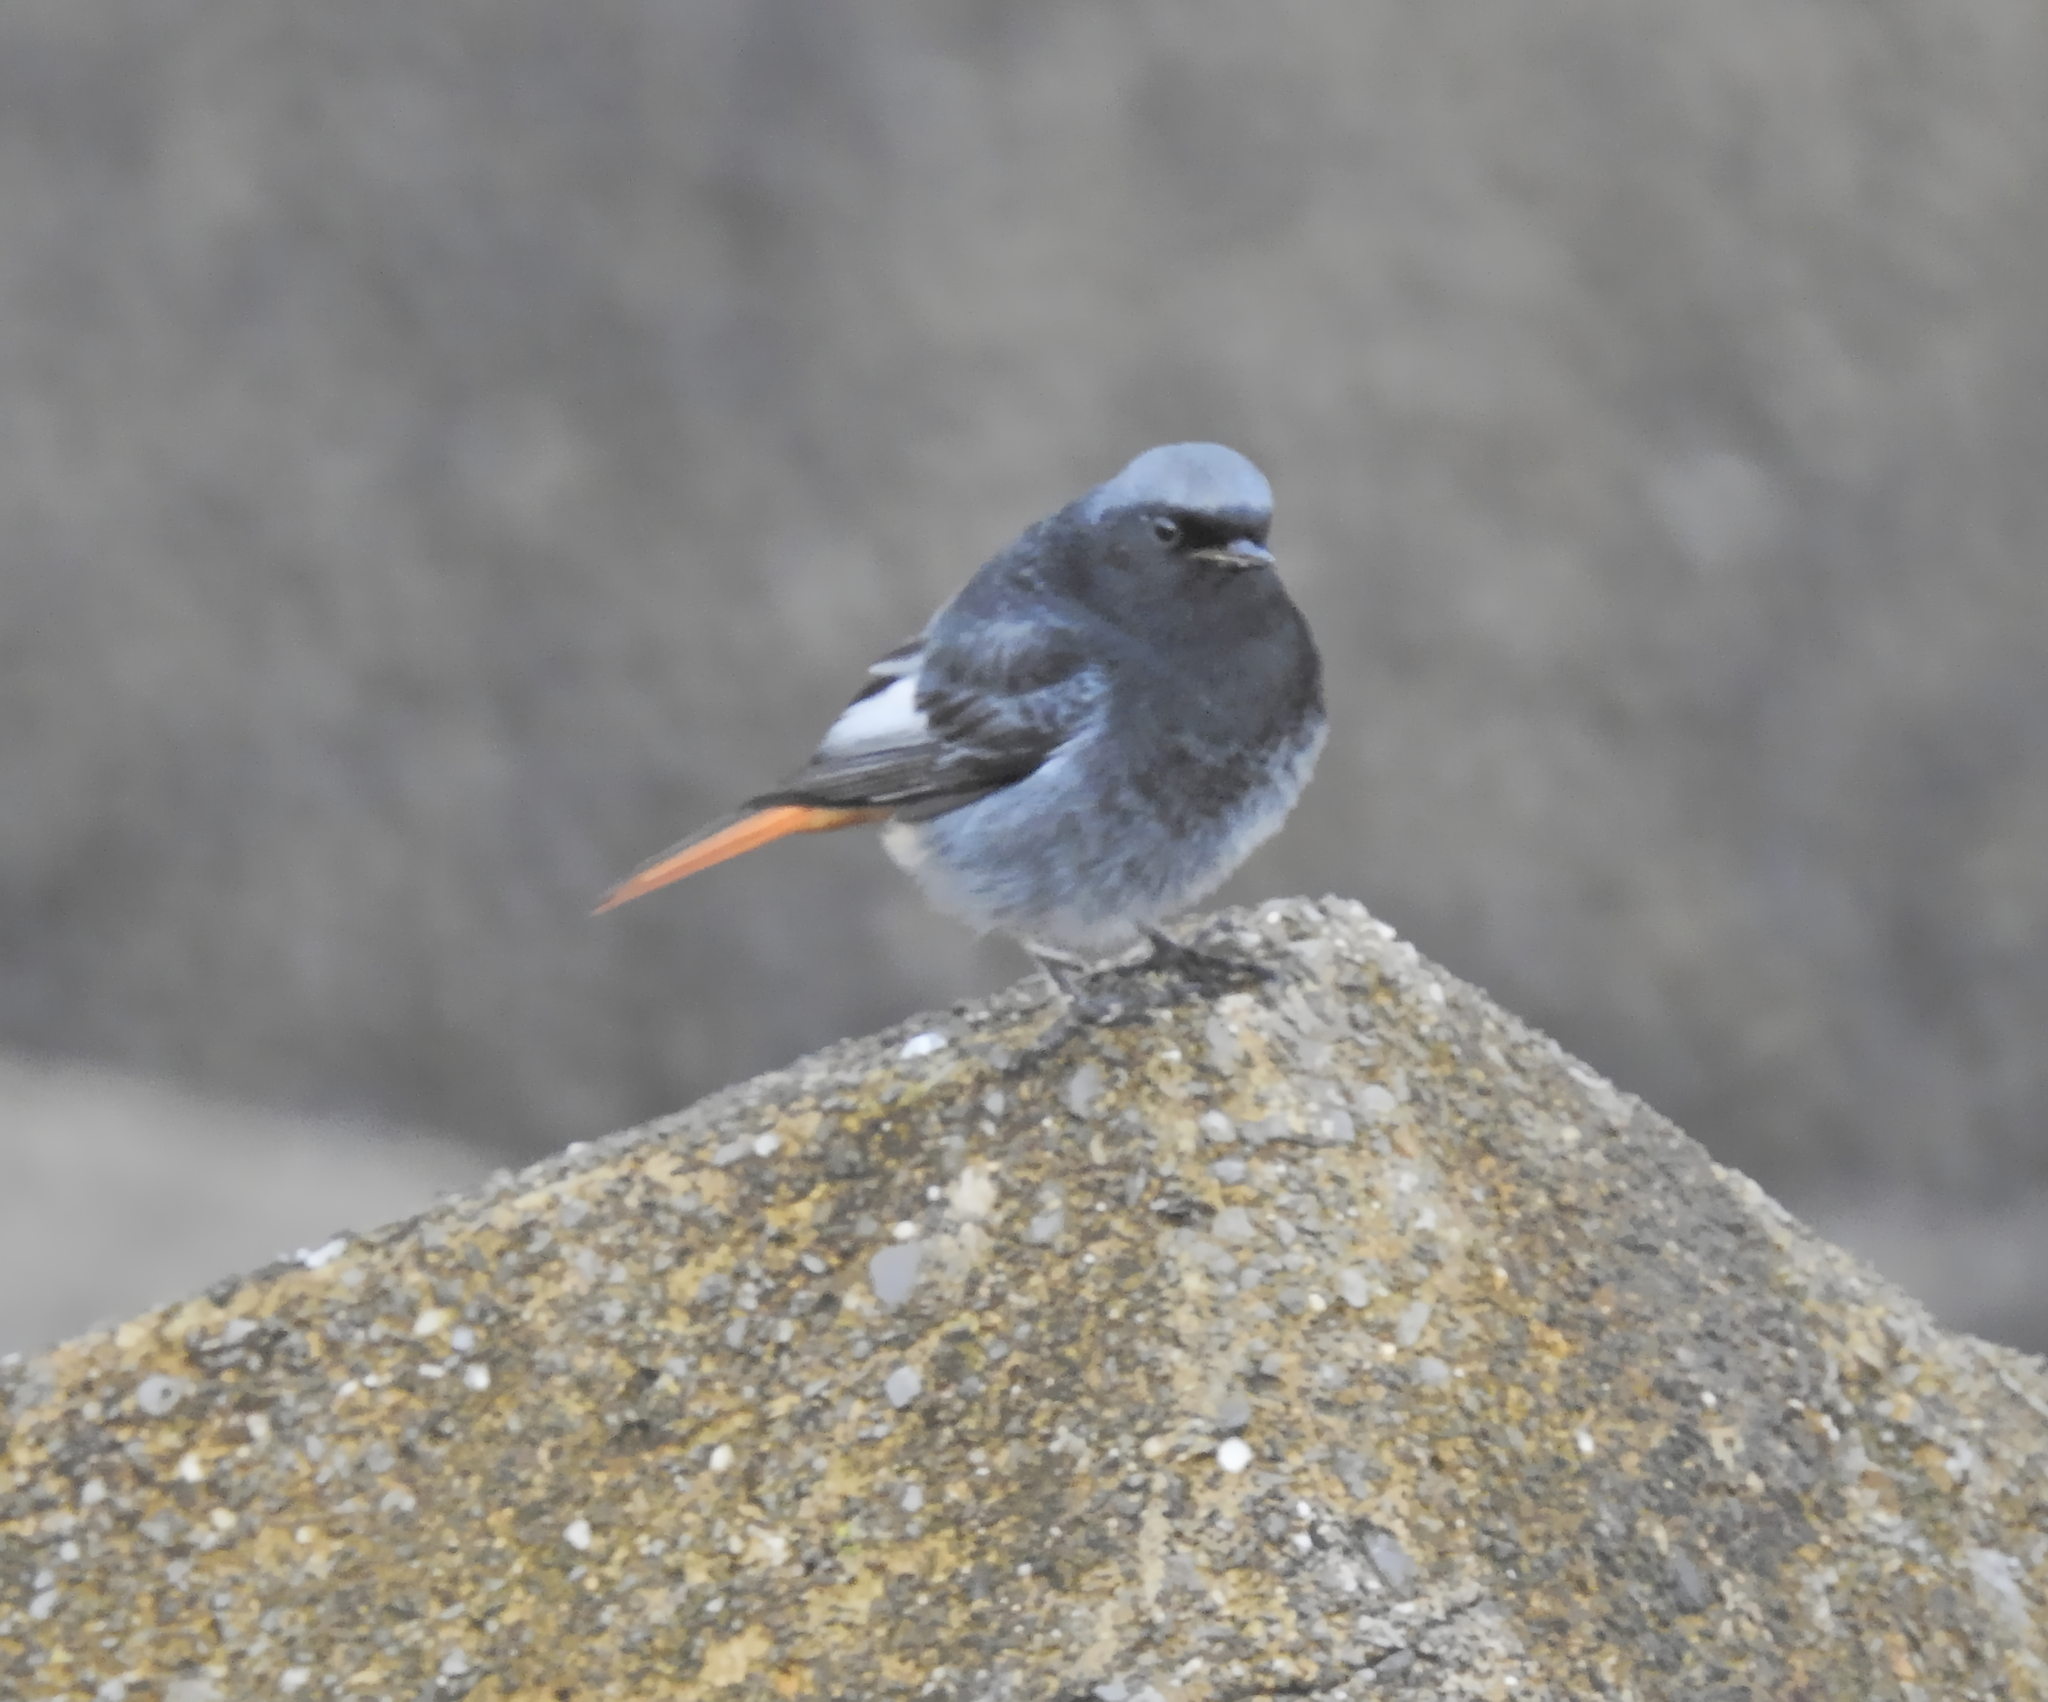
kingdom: Animalia
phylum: Chordata
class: Aves
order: Passeriformes
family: Muscicapidae
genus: Phoenicurus
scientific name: Phoenicurus ochruros
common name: Black redstart
